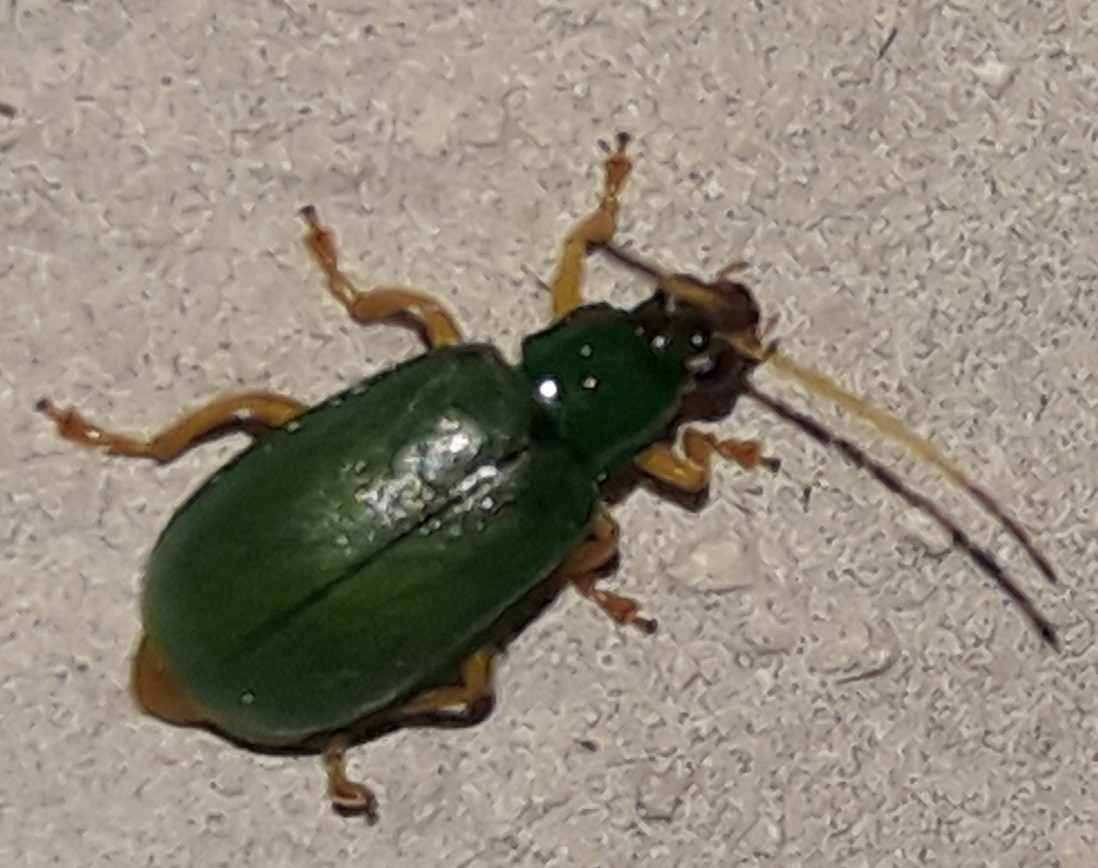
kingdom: Animalia
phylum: Arthropoda
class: Insecta
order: Coleoptera
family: Chrysomelidae
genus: Diabrotica
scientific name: Diabrotica
